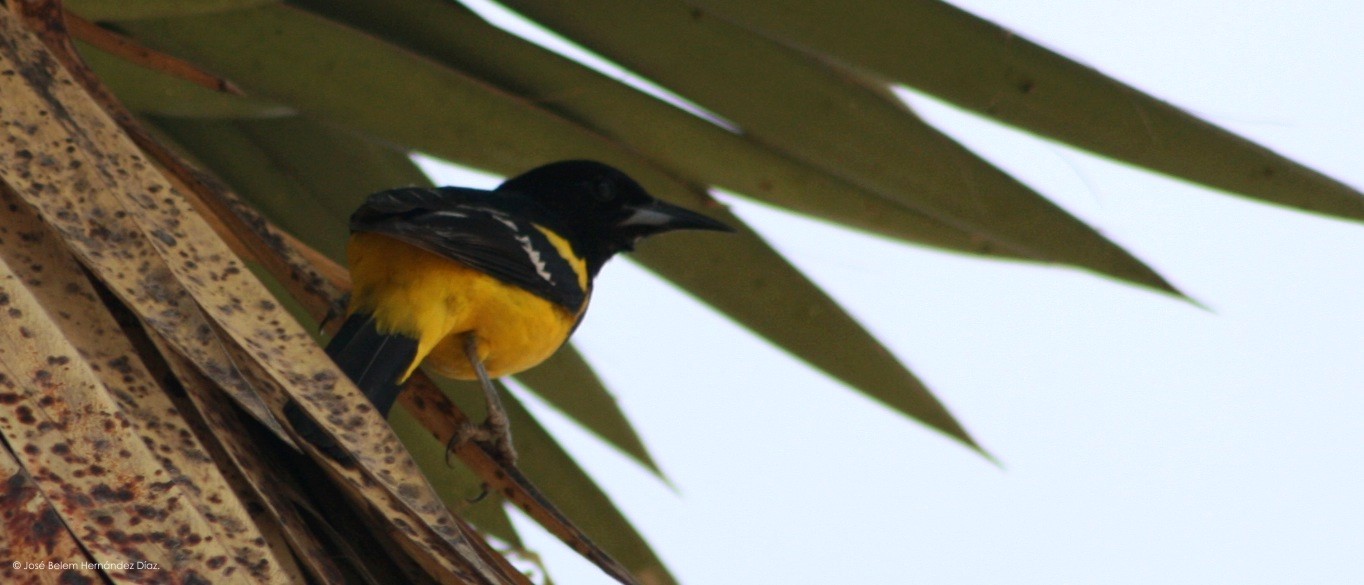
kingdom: Animalia
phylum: Chordata
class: Aves
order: Passeriformes
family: Icteridae
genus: Icterus
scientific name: Icterus parisorum
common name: Scott's oriole
